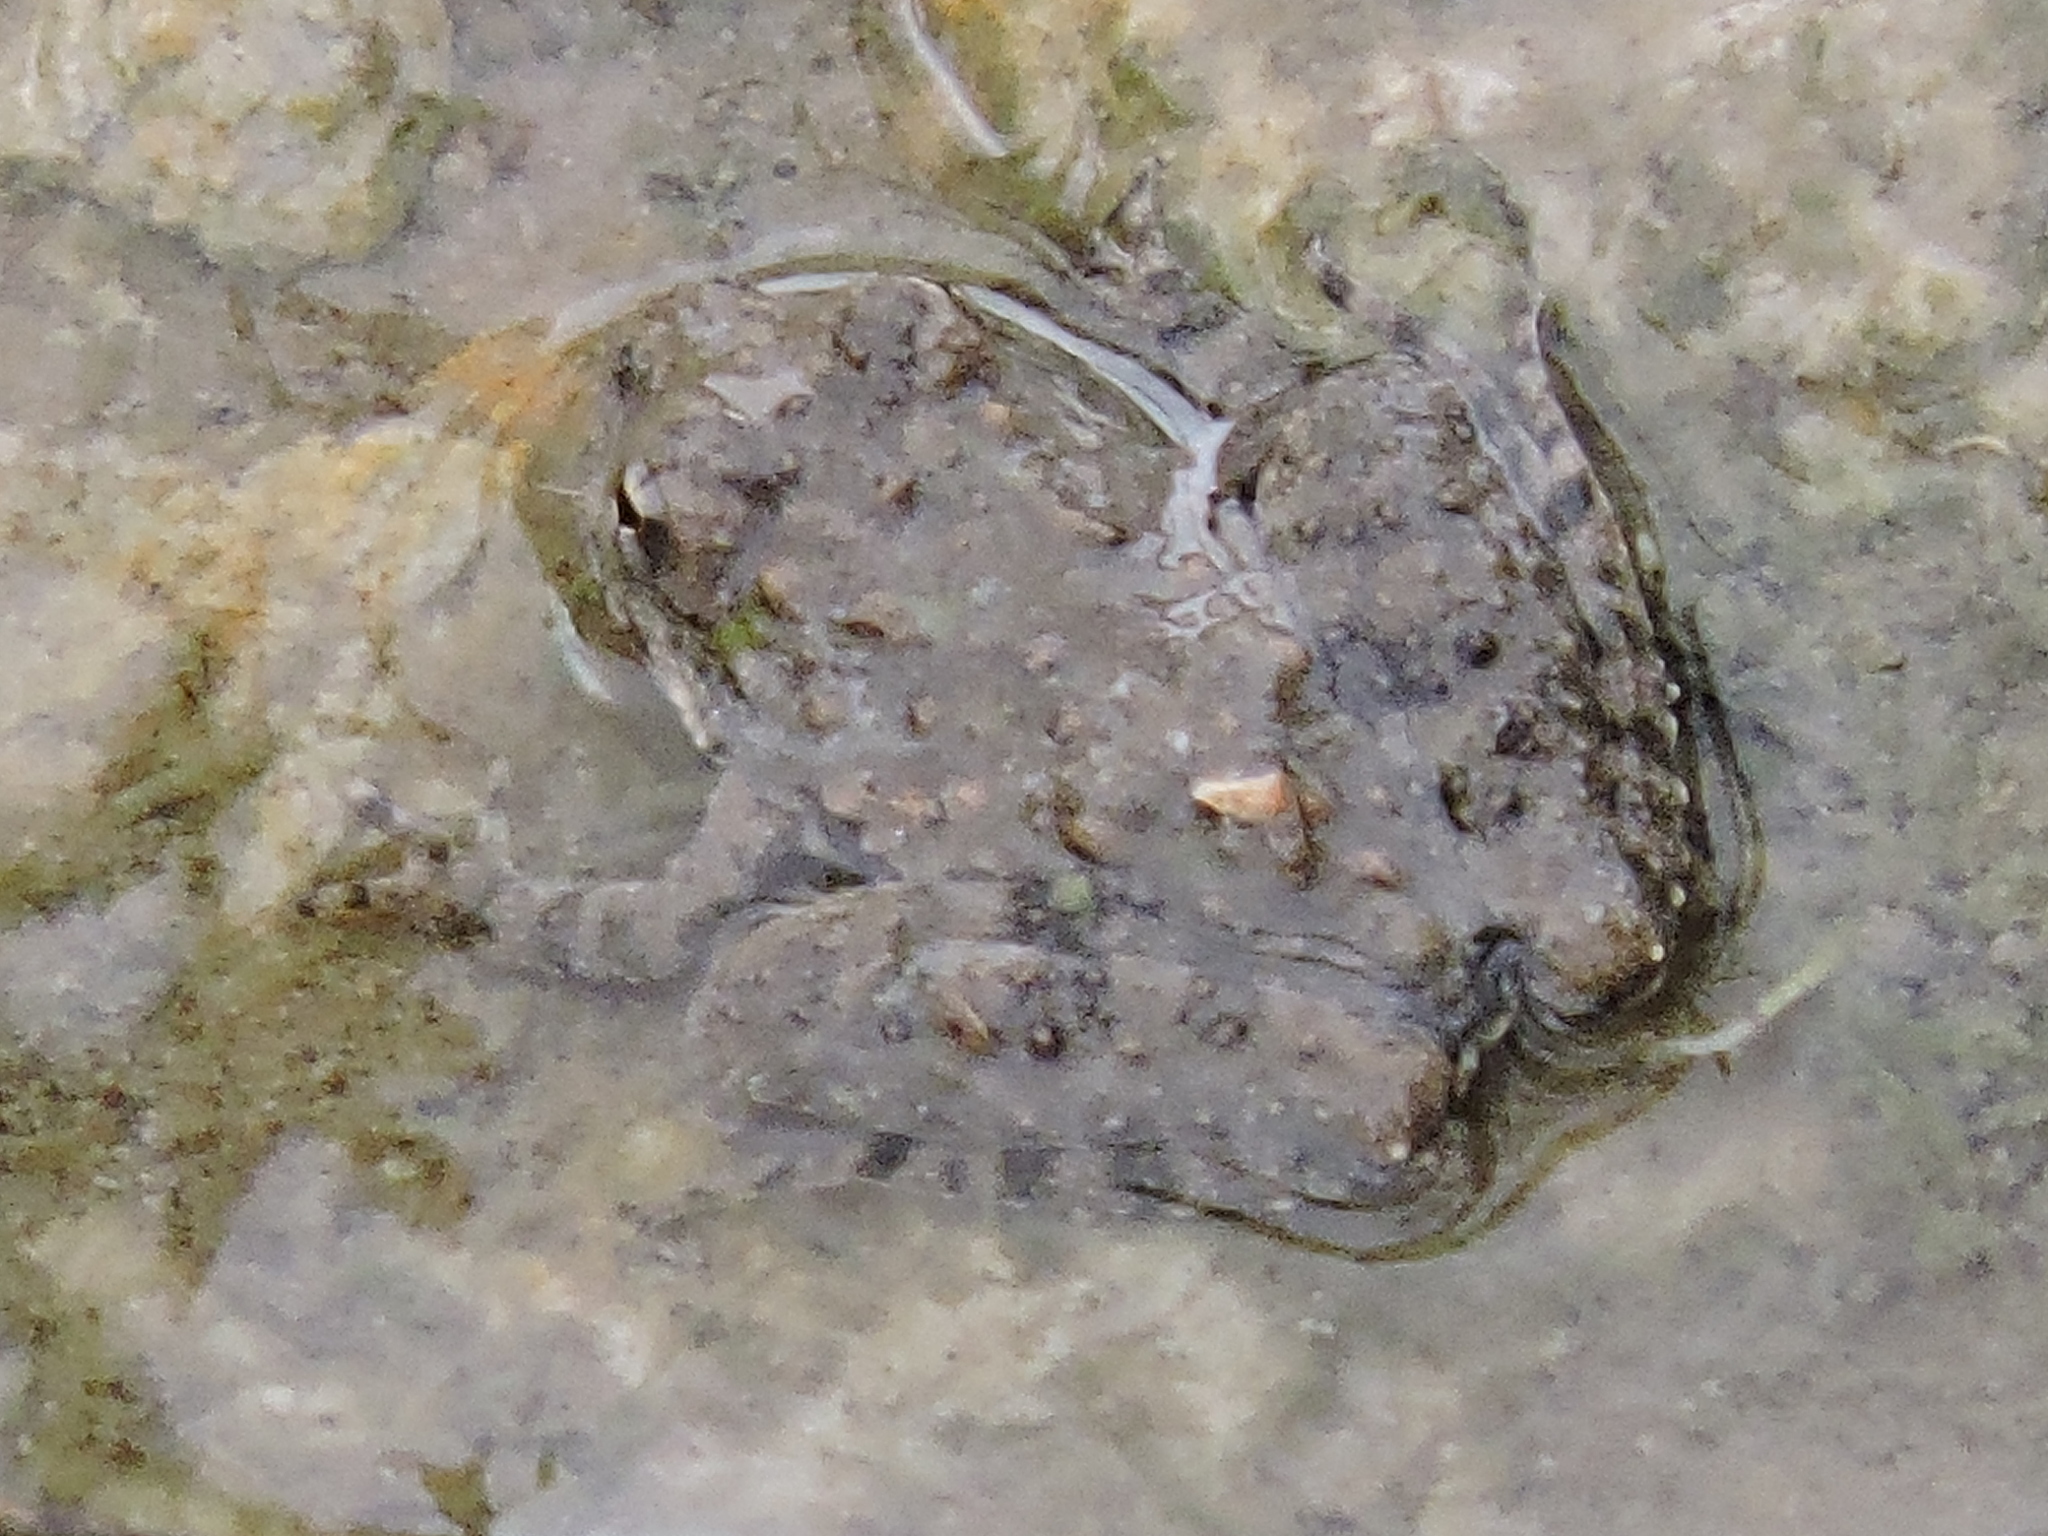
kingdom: Animalia
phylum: Chordata
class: Amphibia
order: Anura
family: Hylidae
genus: Acris
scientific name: Acris blanchardi
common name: Blanchard's cricket frog
